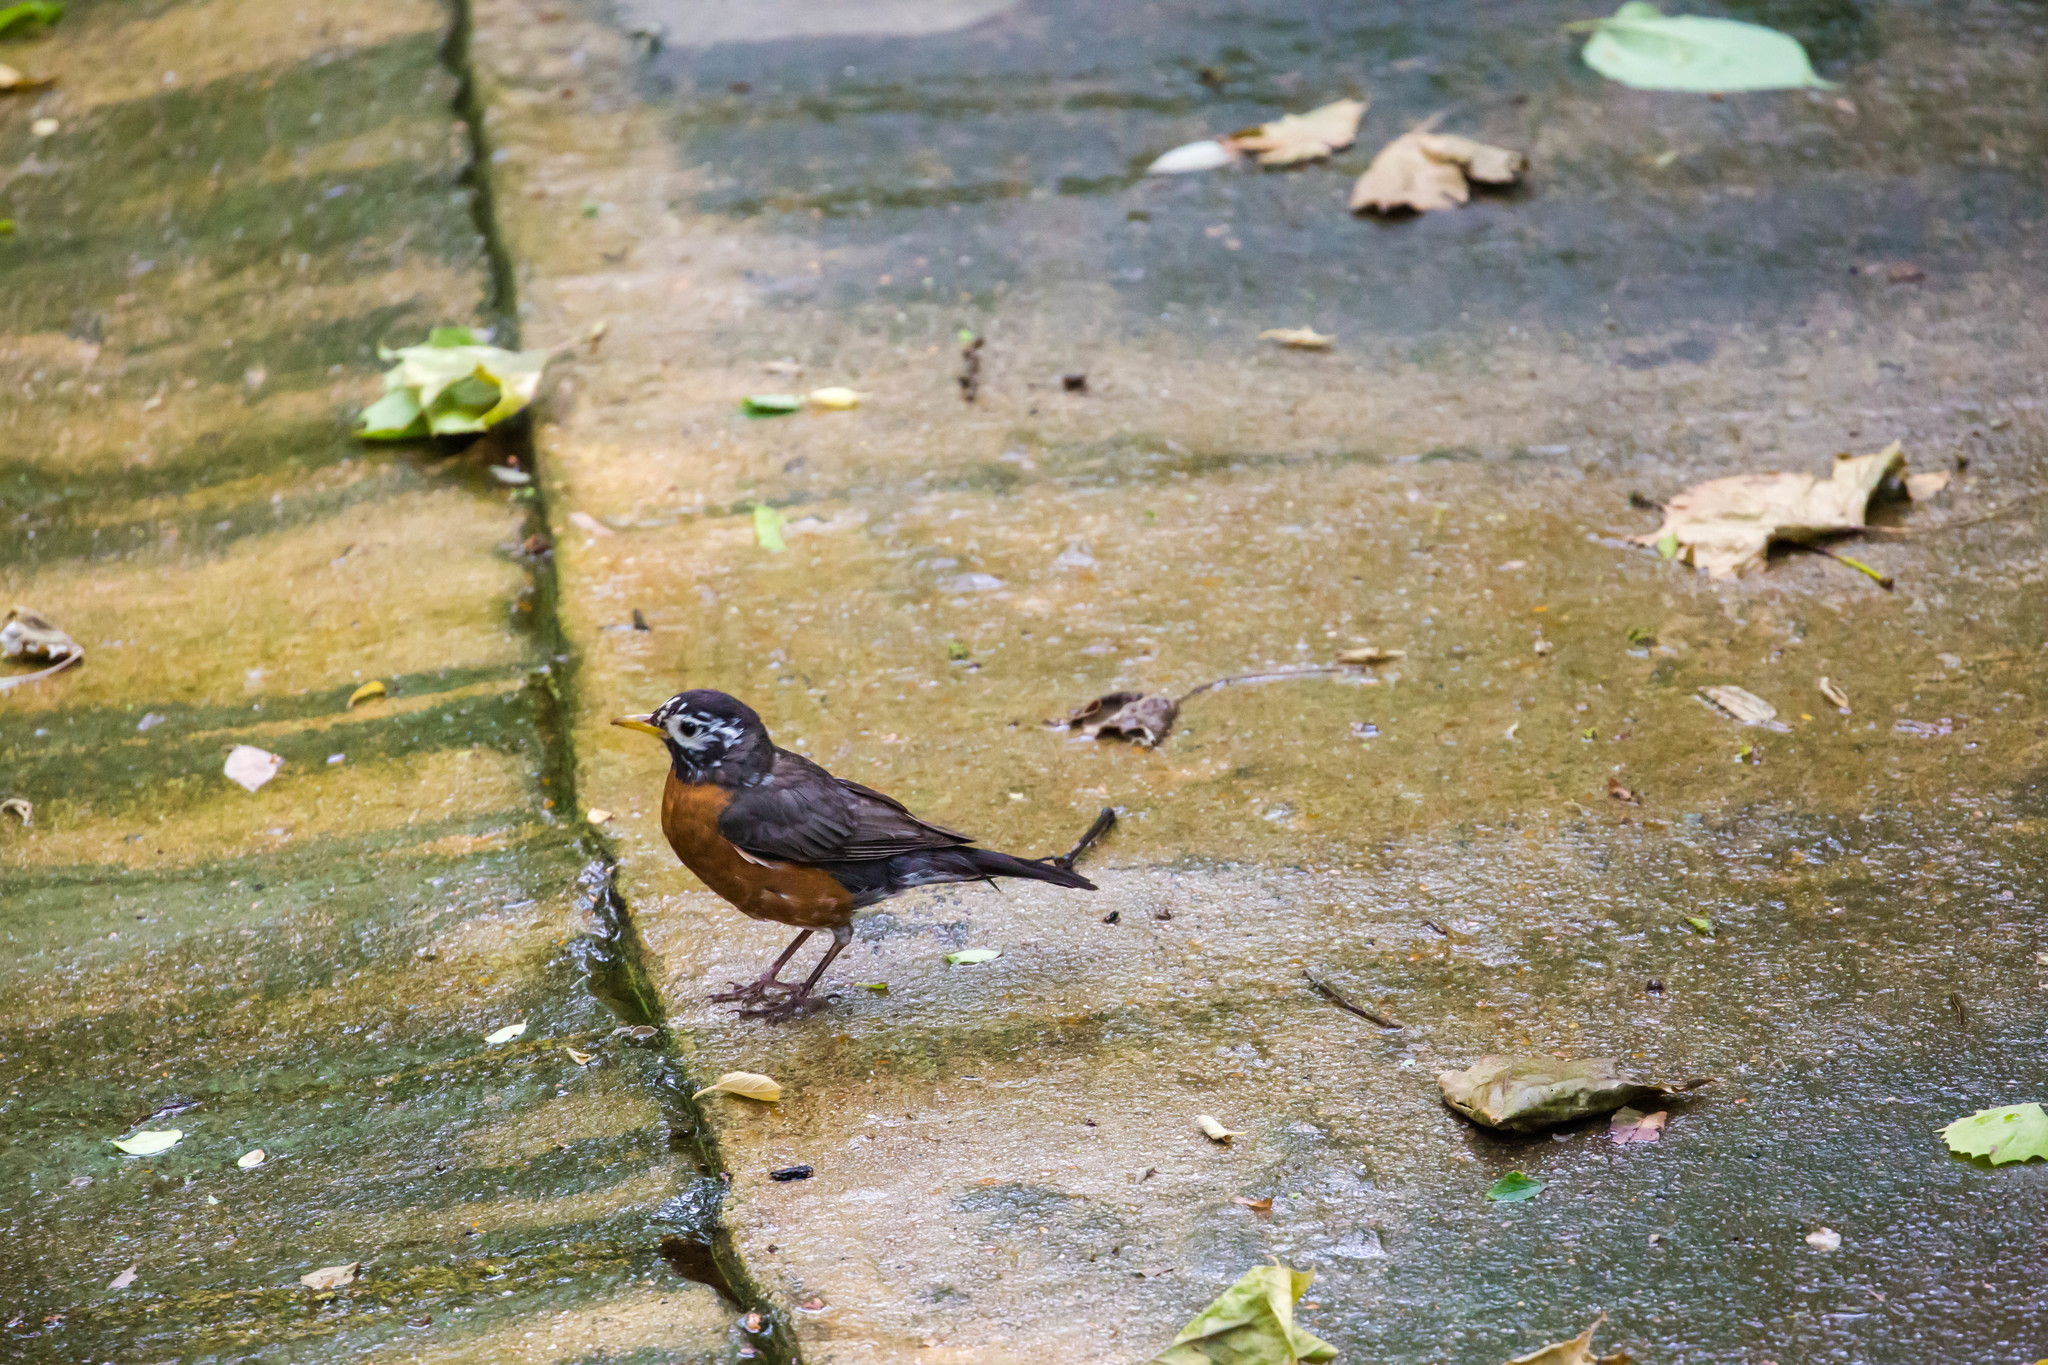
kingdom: Animalia
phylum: Chordata
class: Aves
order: Passeriformes
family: Turdidae
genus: Turdus
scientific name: Turdus migratorius
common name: American robin
